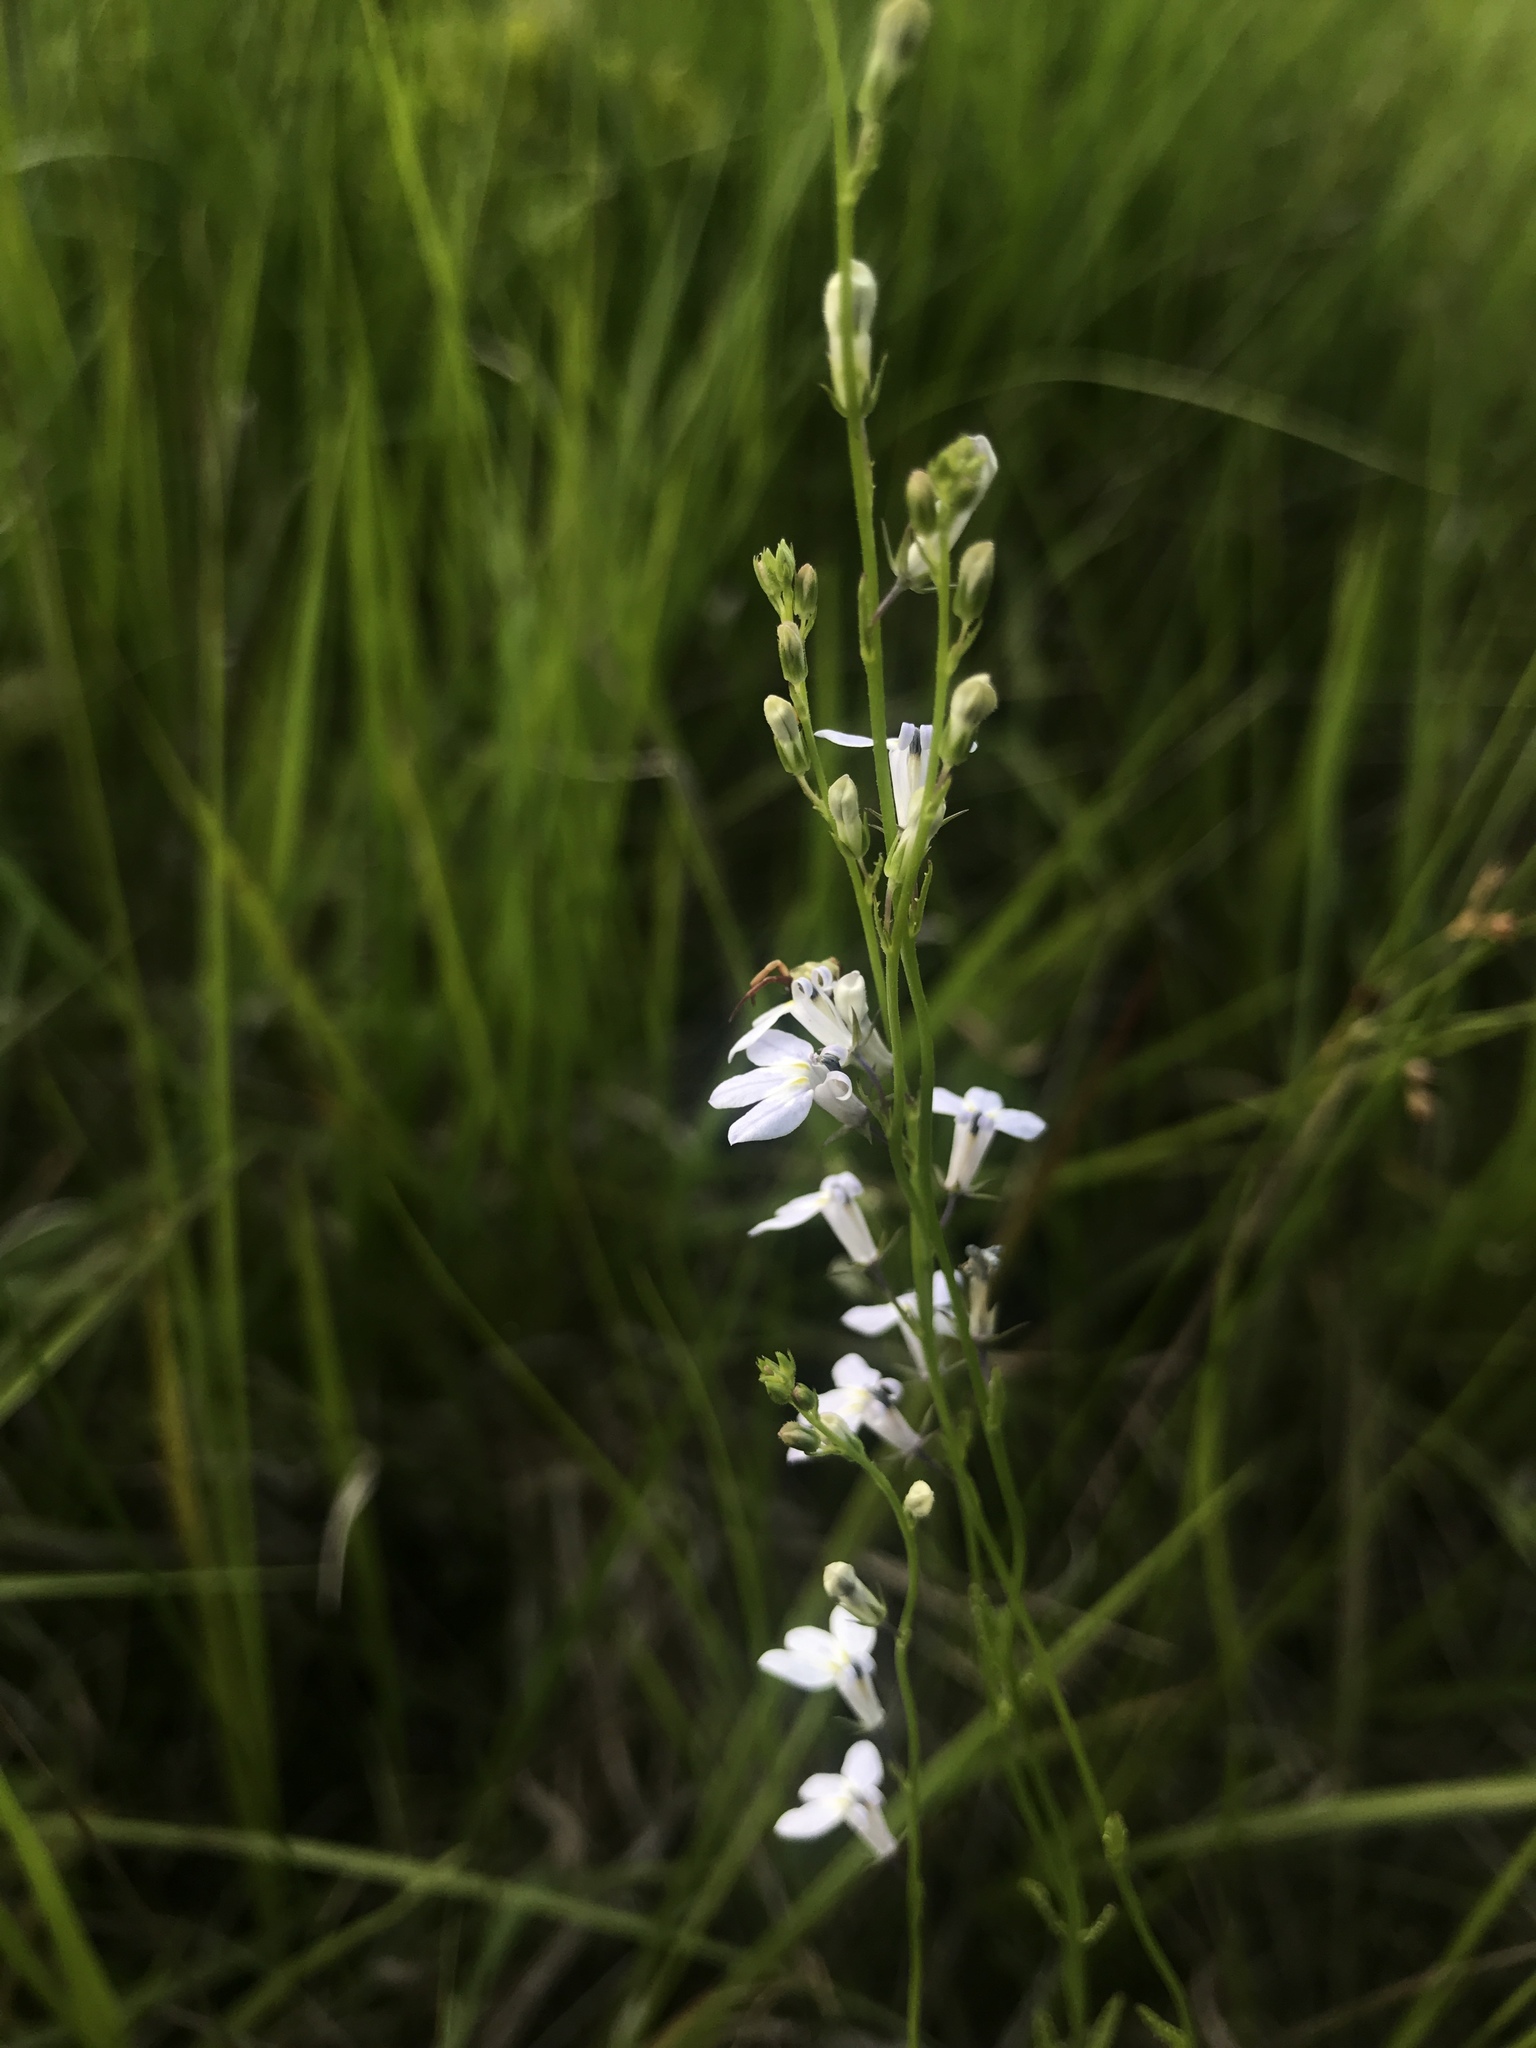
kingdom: Plantae
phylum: Tracheophyta
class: Magnoliopsida
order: Asterales
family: Campanulaceae
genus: Lobelia
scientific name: Lobelia spicata
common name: Pale-spike lobelia
